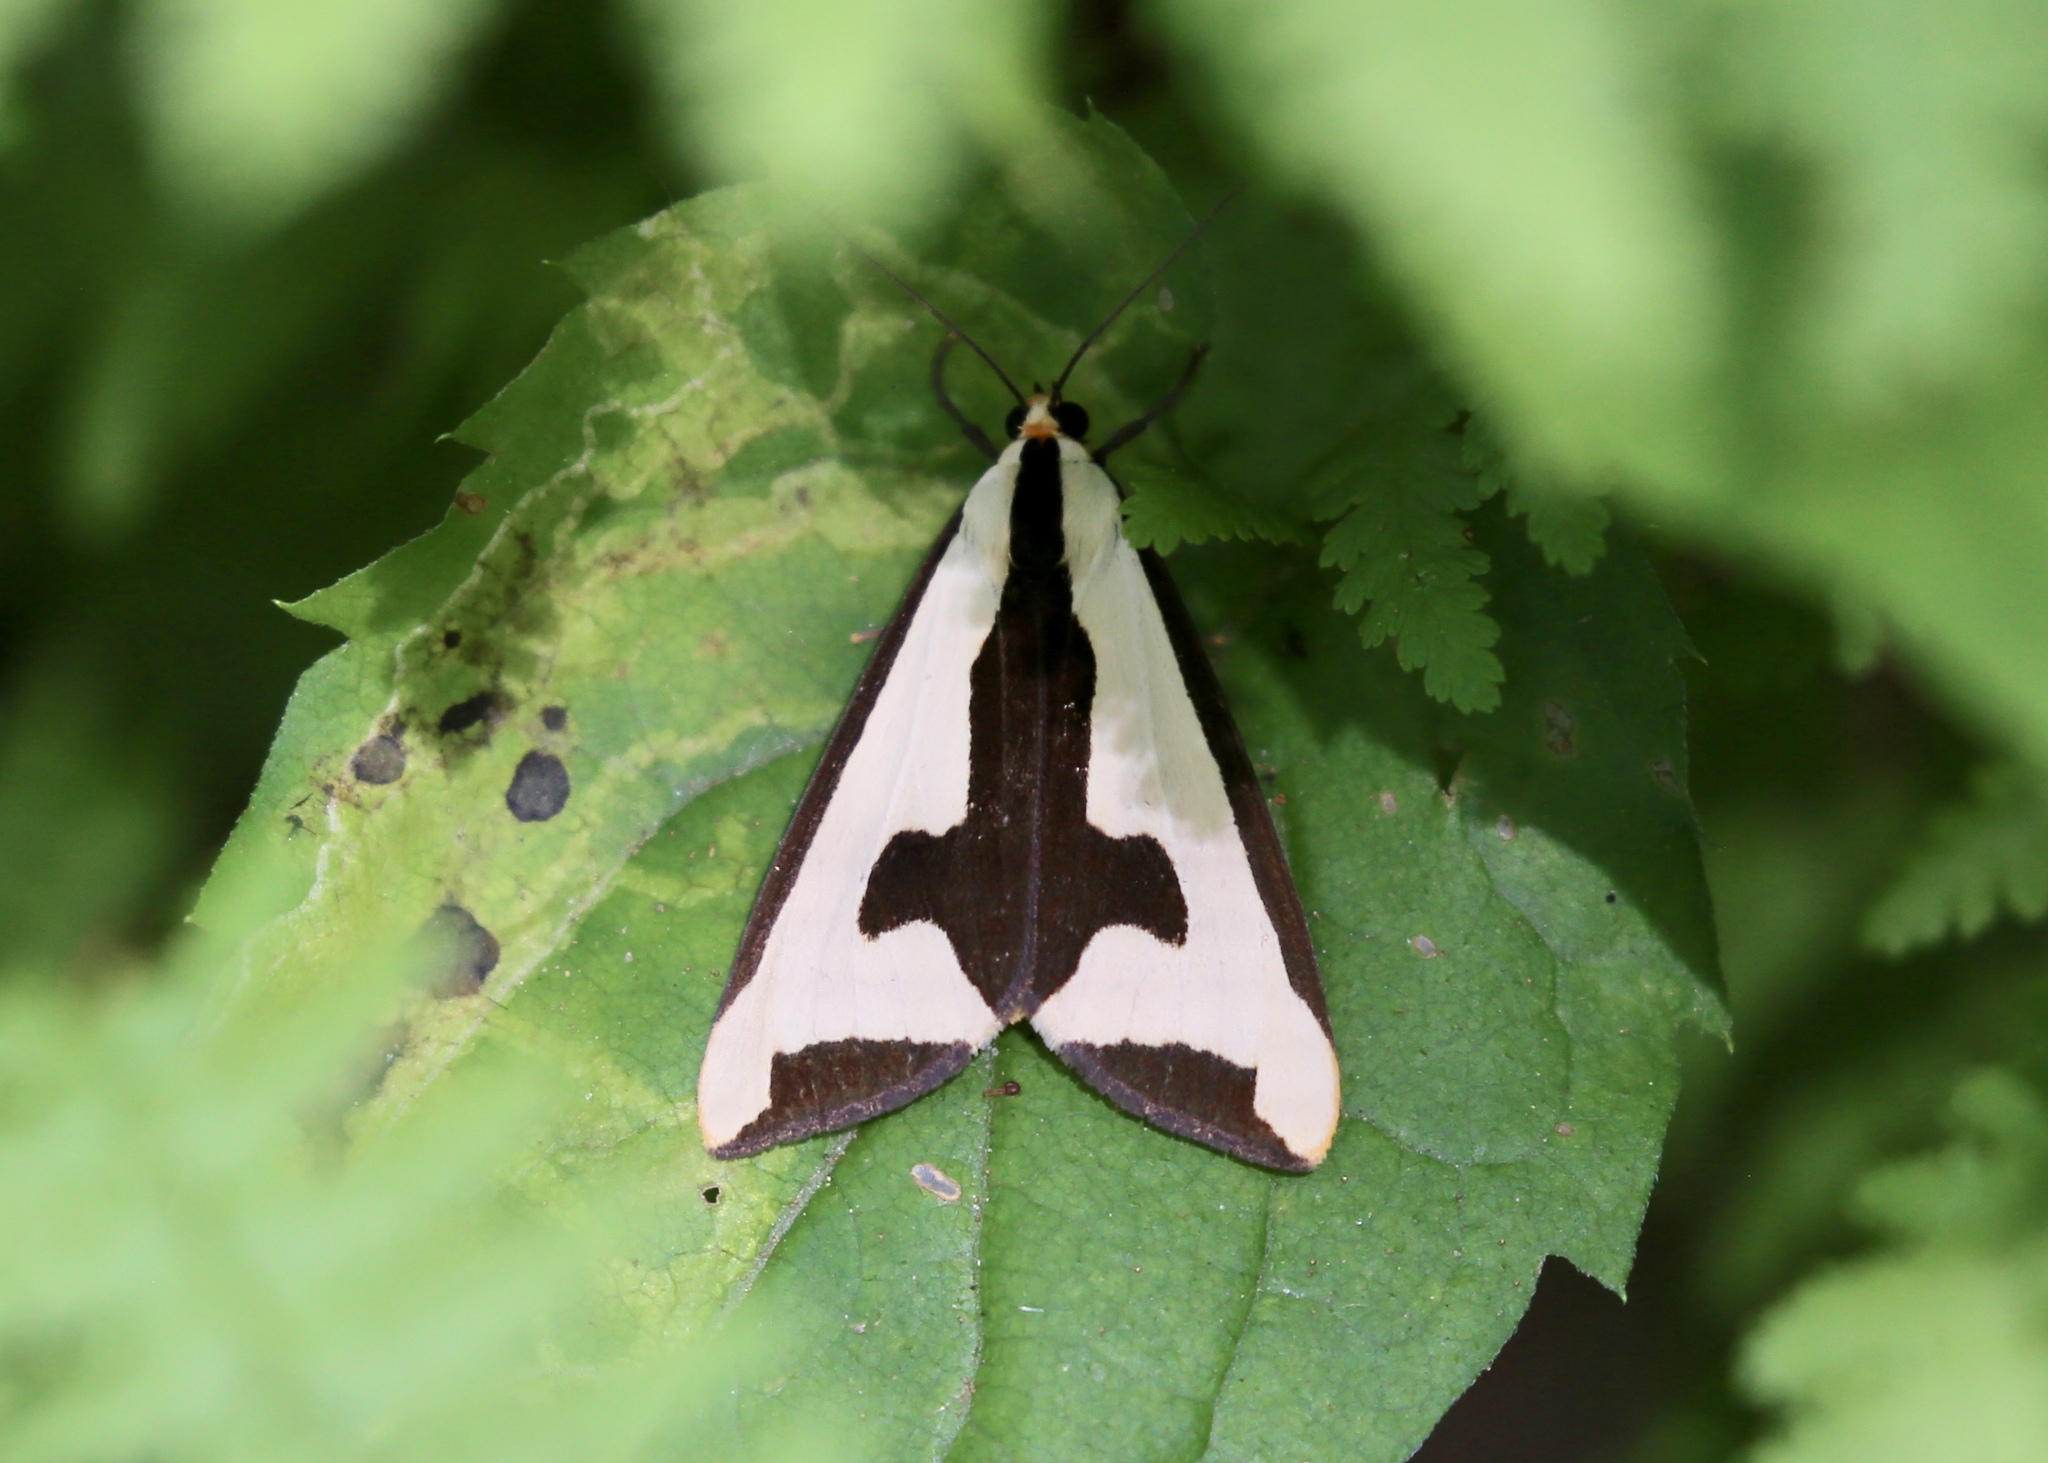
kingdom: Animalia
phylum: Arthropoda
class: Insecta
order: Lepidoptera
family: Erebidae
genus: Haploa
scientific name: Haploa clymene
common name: Clymene moth
